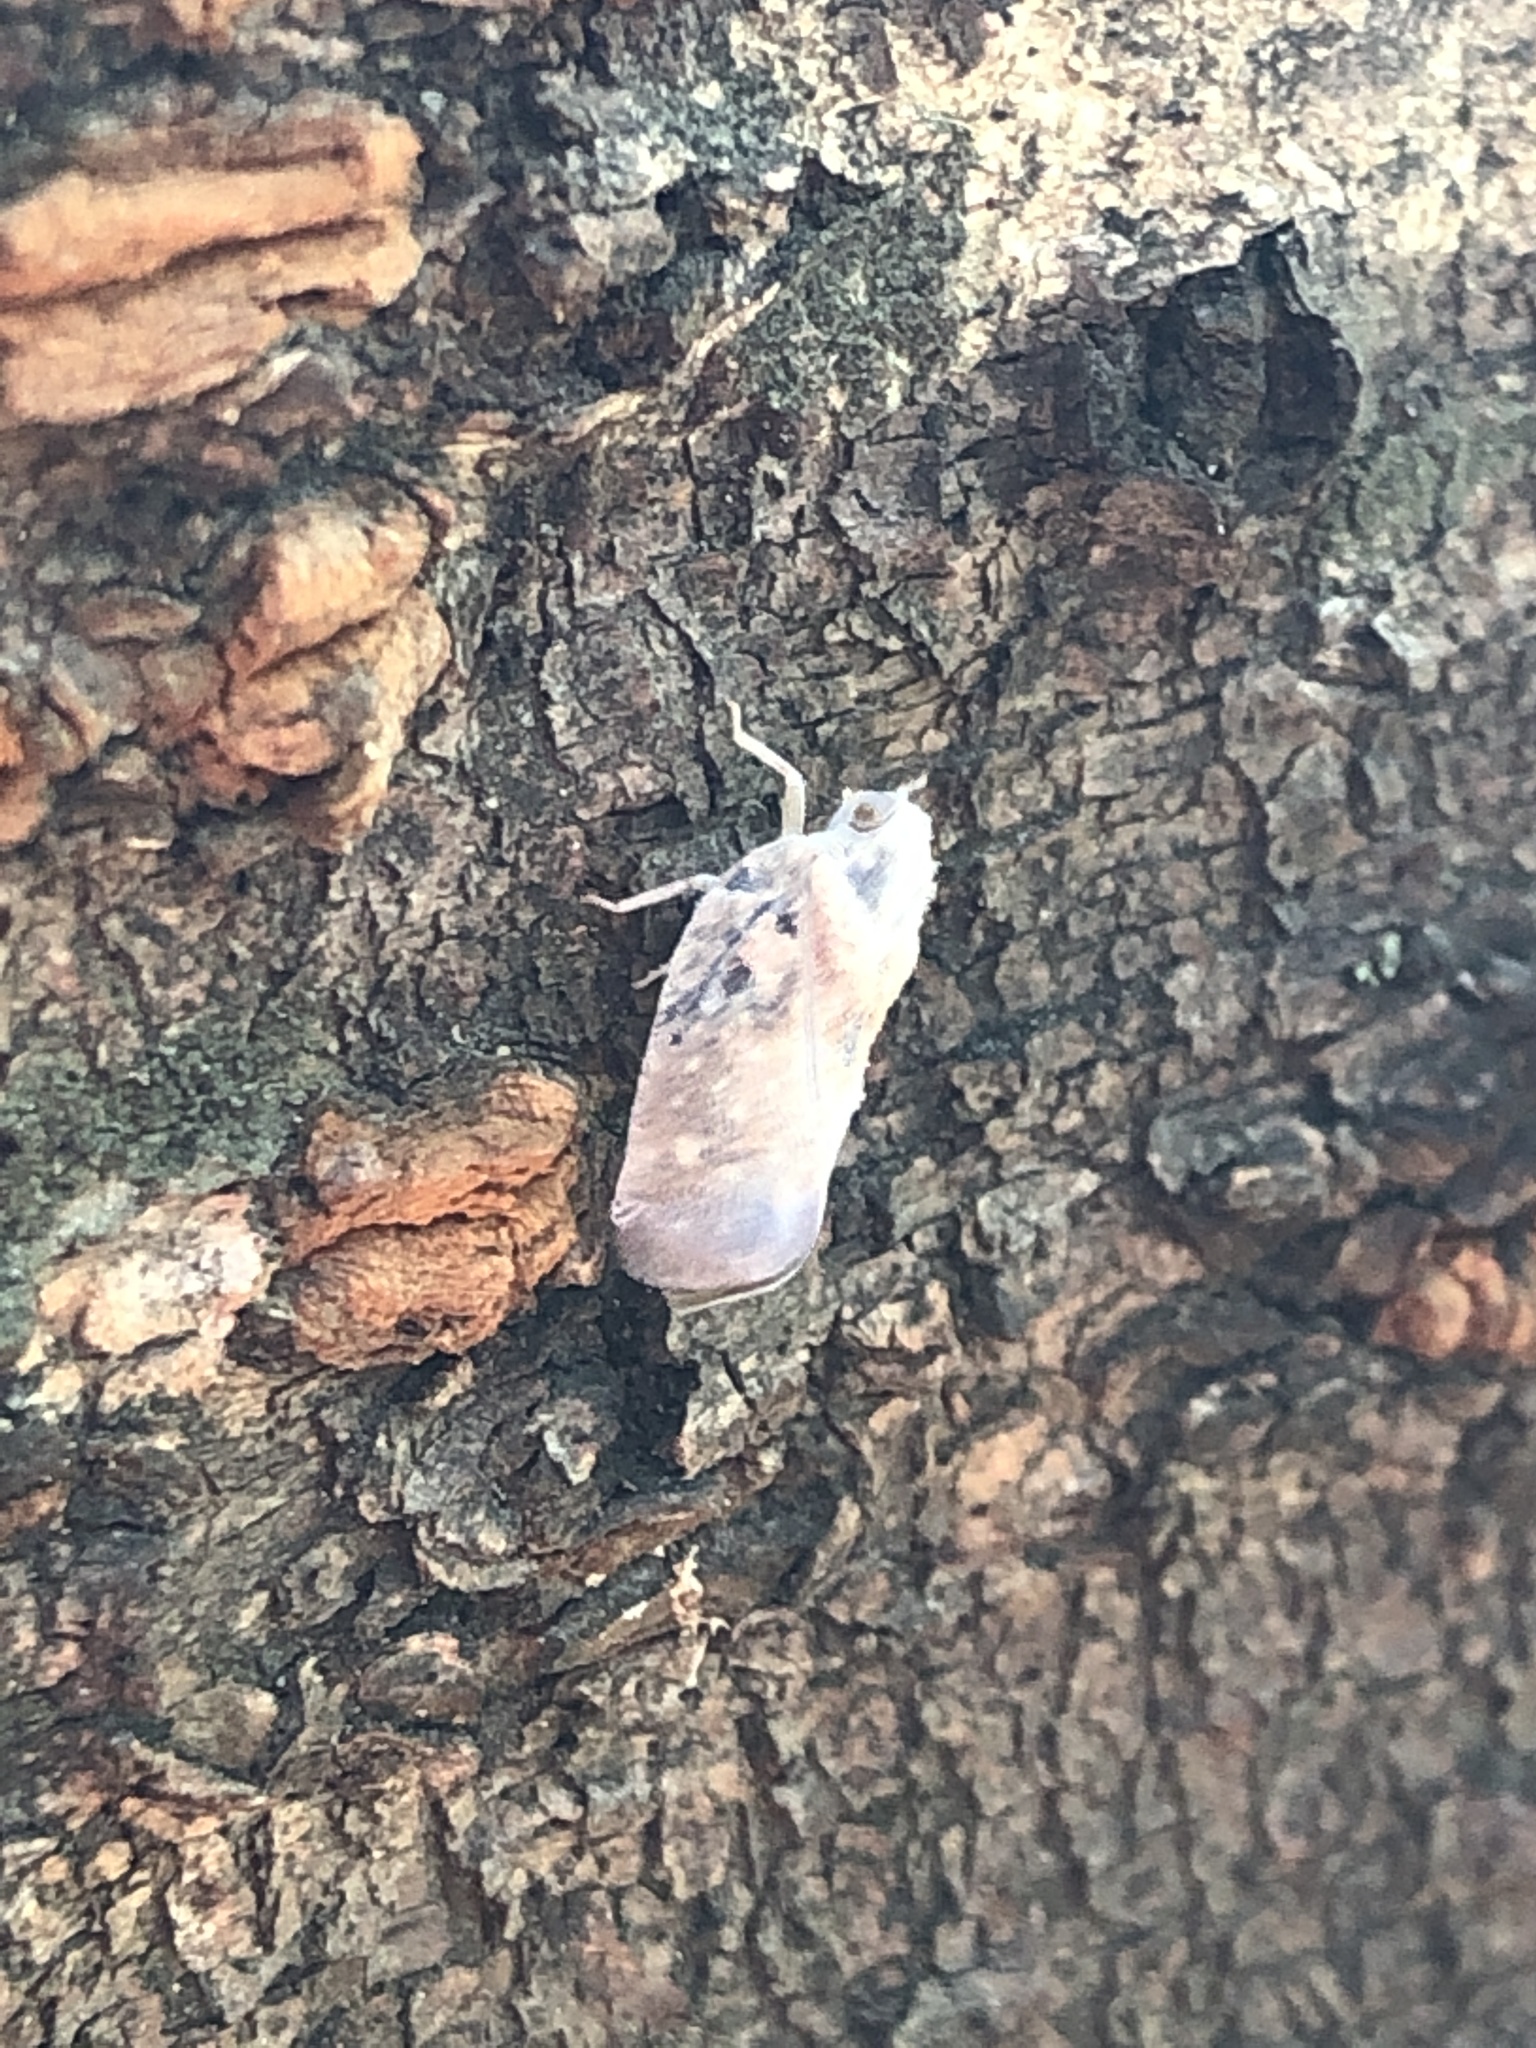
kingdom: Animalia
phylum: Arthropoda
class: Insecta
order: Hemiptera
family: Flatidae
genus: Metcalfa
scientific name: Metcalfa pruinosa
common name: Citrus flatid planthopper
